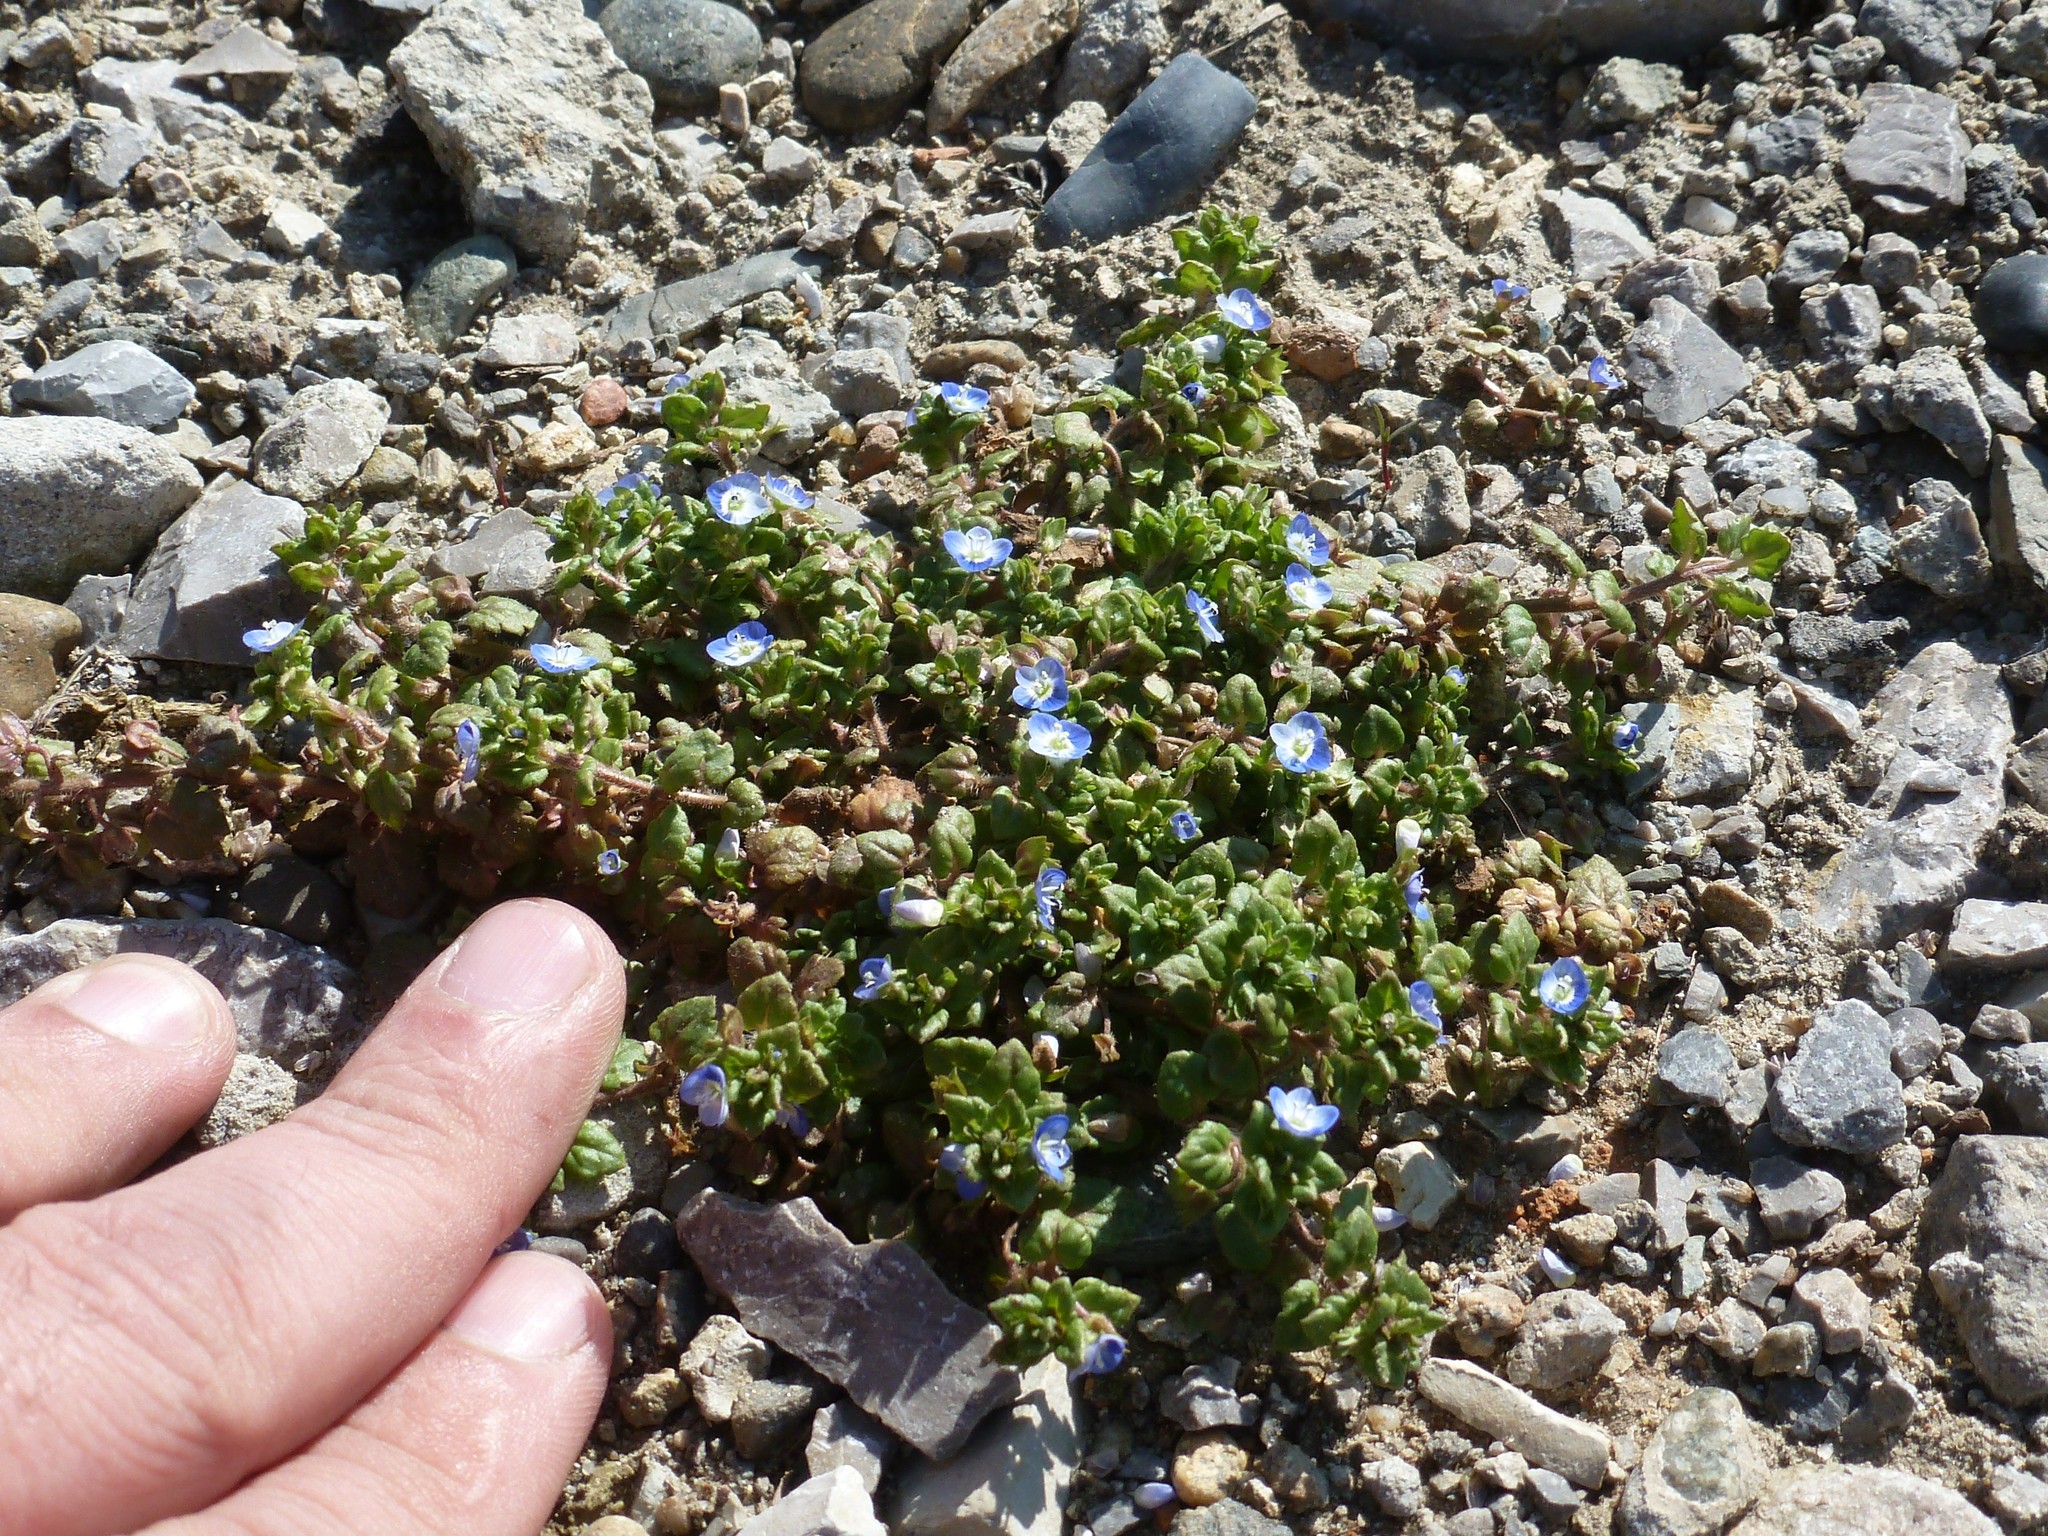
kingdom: Plantae
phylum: Tracheophyta
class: Magnoliopsida
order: Lamiales
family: Plantaginaceae
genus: Veronica
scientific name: Veronica polita
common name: Grey field-speedwell
